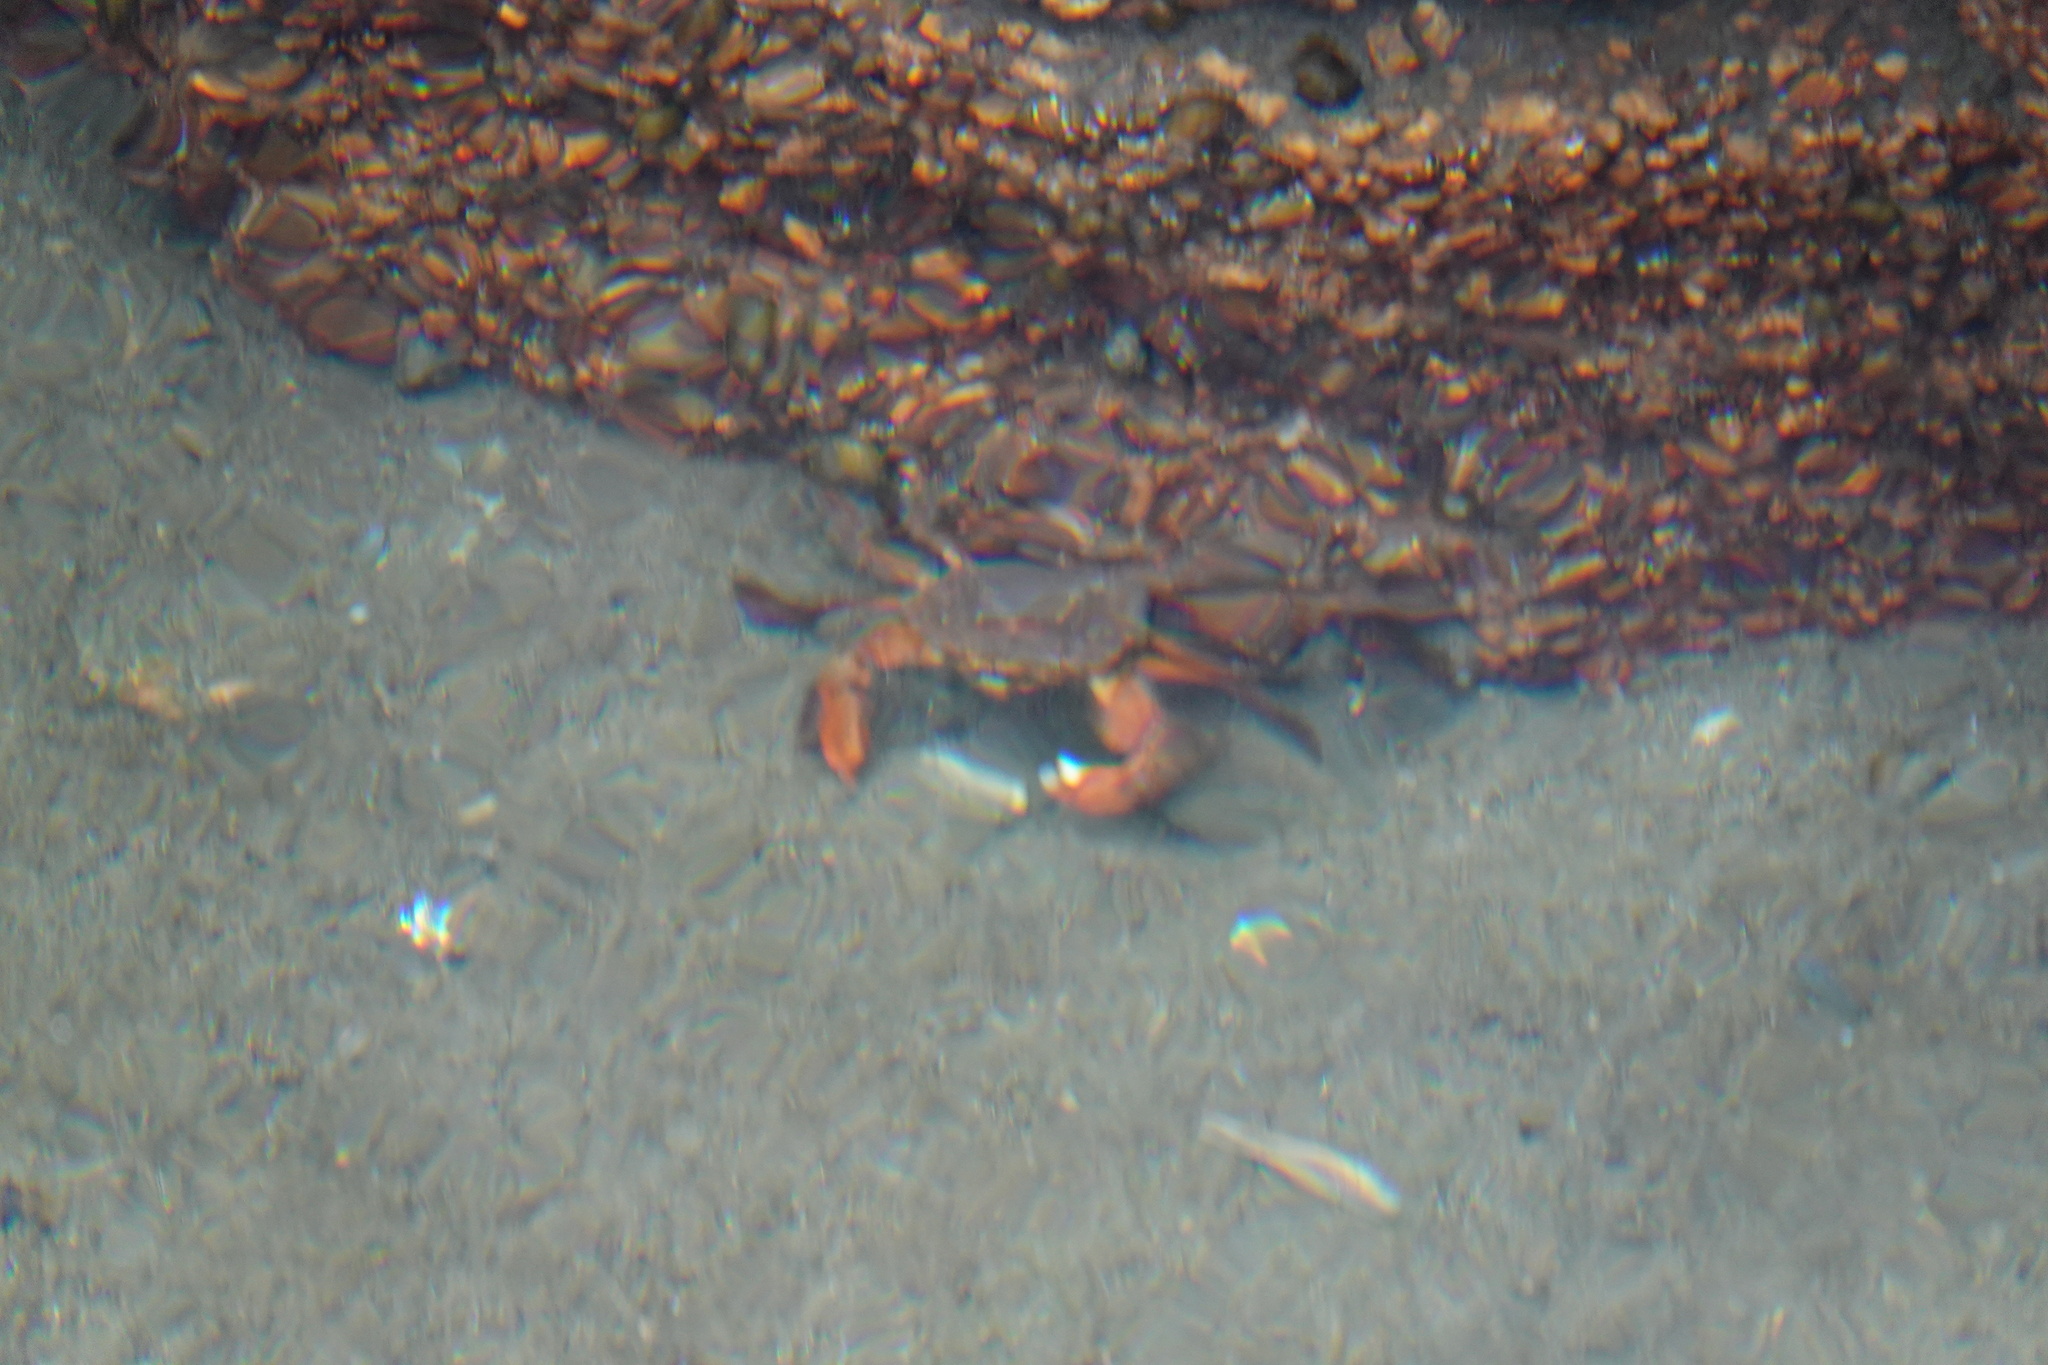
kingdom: Animalia
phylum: Arthropoda
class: Malacostraca
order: Decapoda
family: Varunidae
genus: Varuna
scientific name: Varuna litterata
